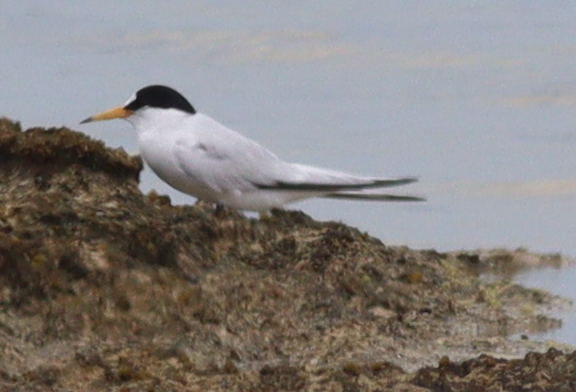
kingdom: Animalia
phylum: Chordata
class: Aves
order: Charadriiformes
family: Laridae
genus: Sternula
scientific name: Sternula saundersi
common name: Saunders's tern
